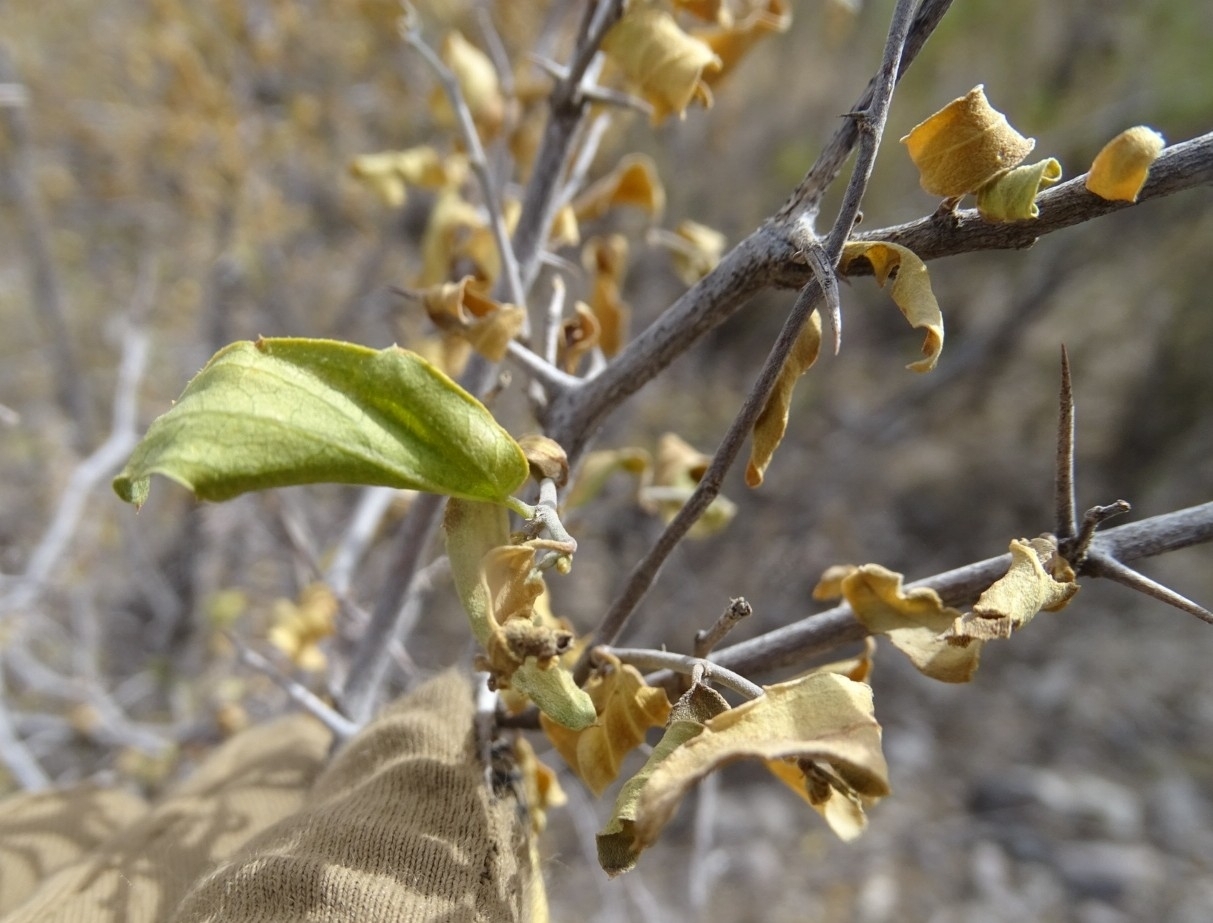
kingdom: Plantae
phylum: Tracheophyta
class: Magnoliopsida
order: Rosales
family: Cannabaceae
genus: Celtis
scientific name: Celtis pallida
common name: Desert hackberry
